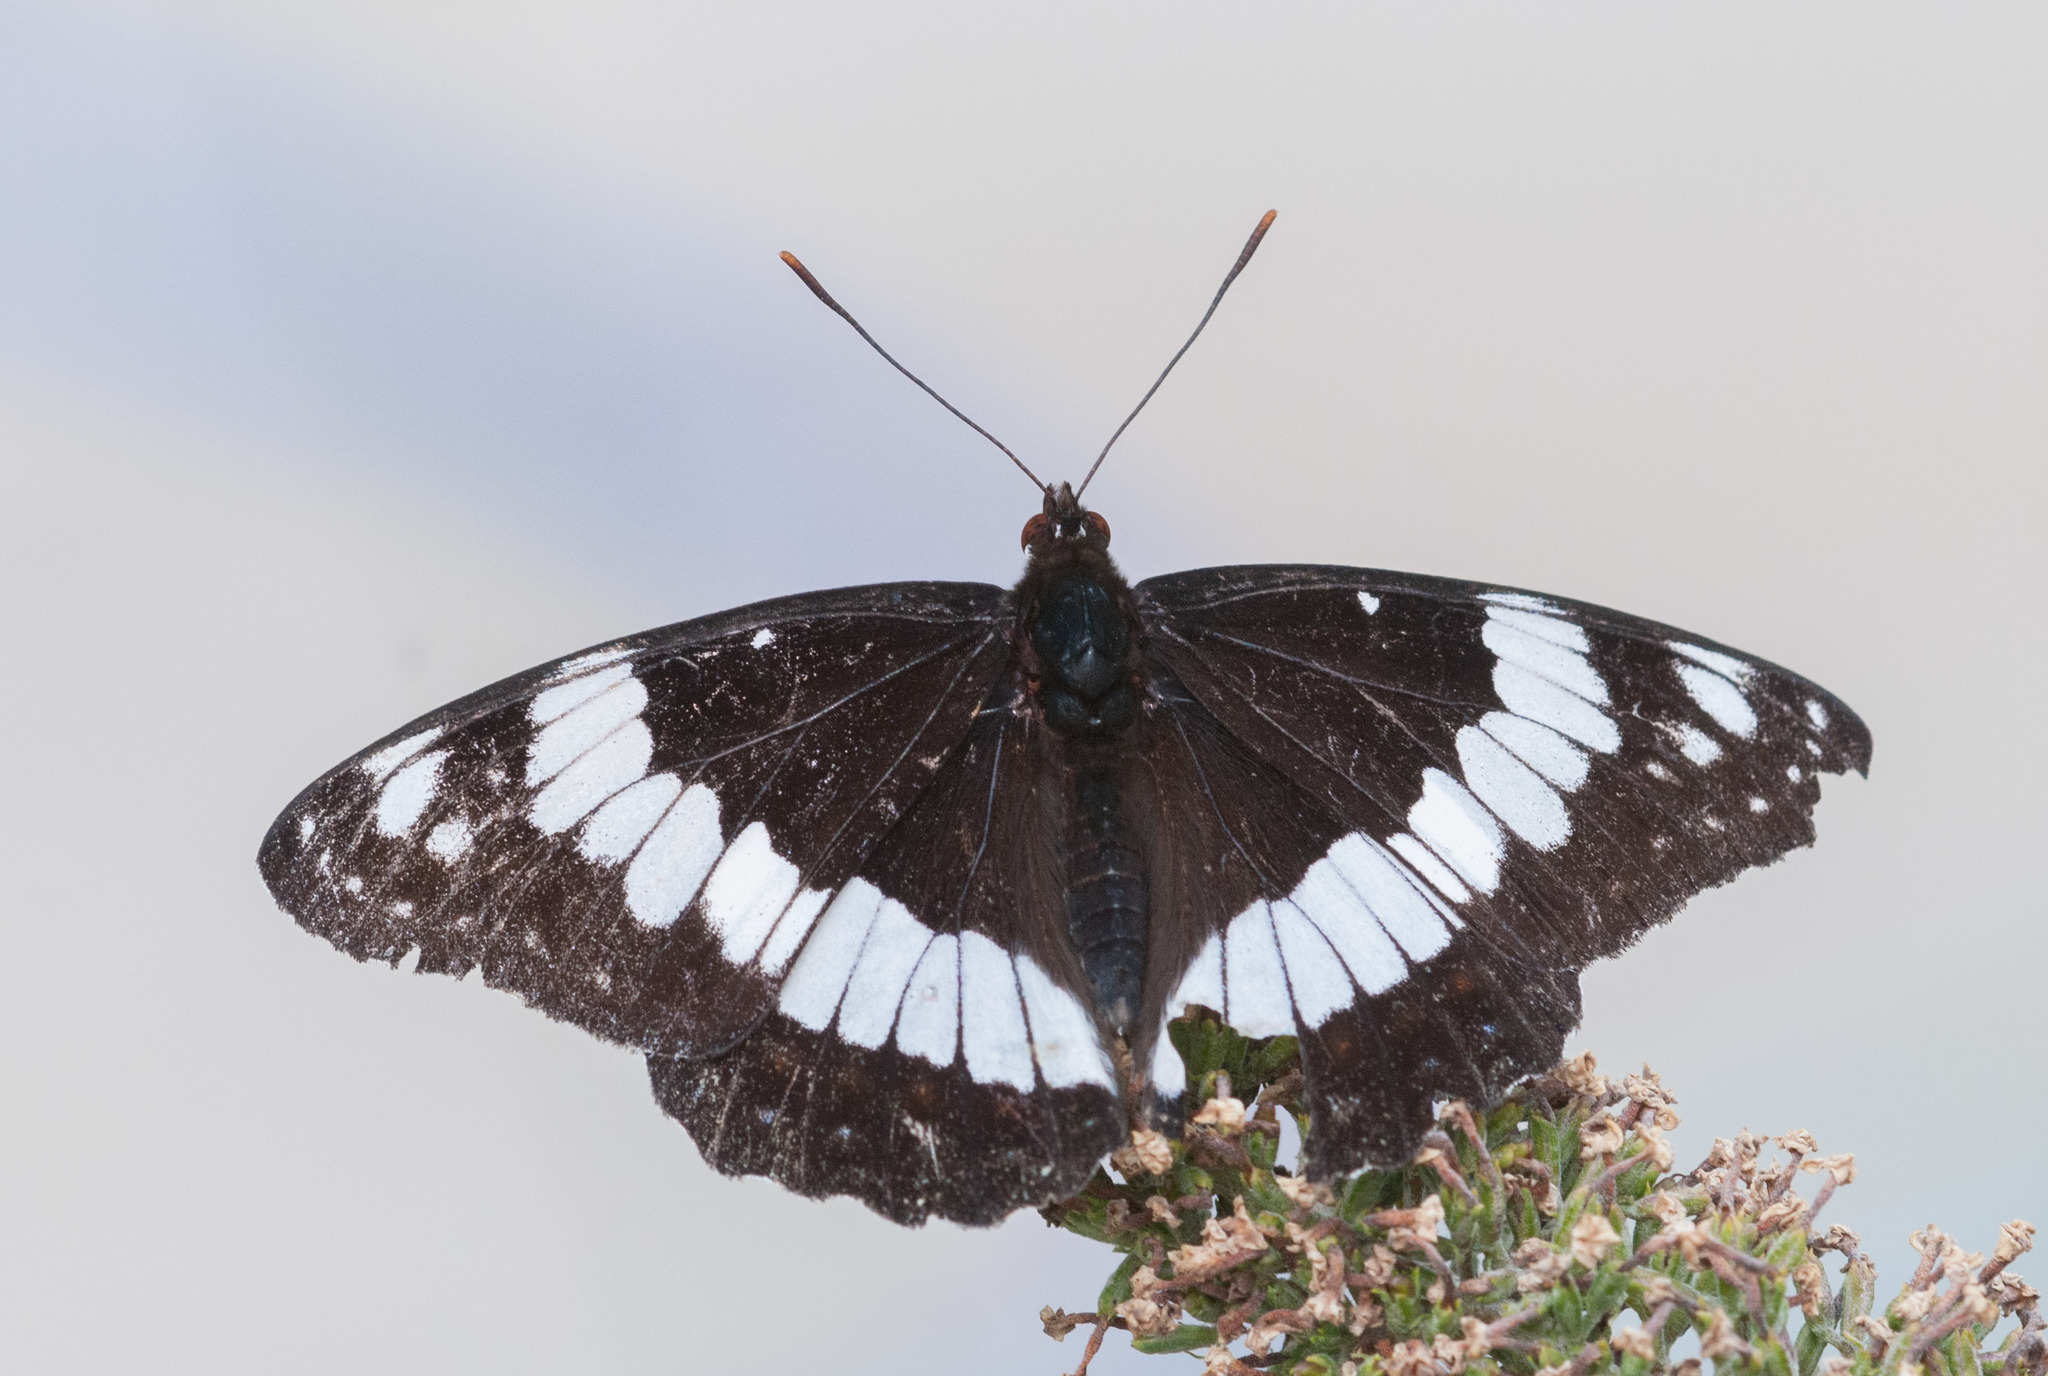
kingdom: Animalia
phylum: Arthropoda
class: Insecta
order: Lepidoptera
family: Nymphalidae
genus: Limenitis
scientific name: Limenitis weidemeyerii
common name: Weidemeyer's admiral
